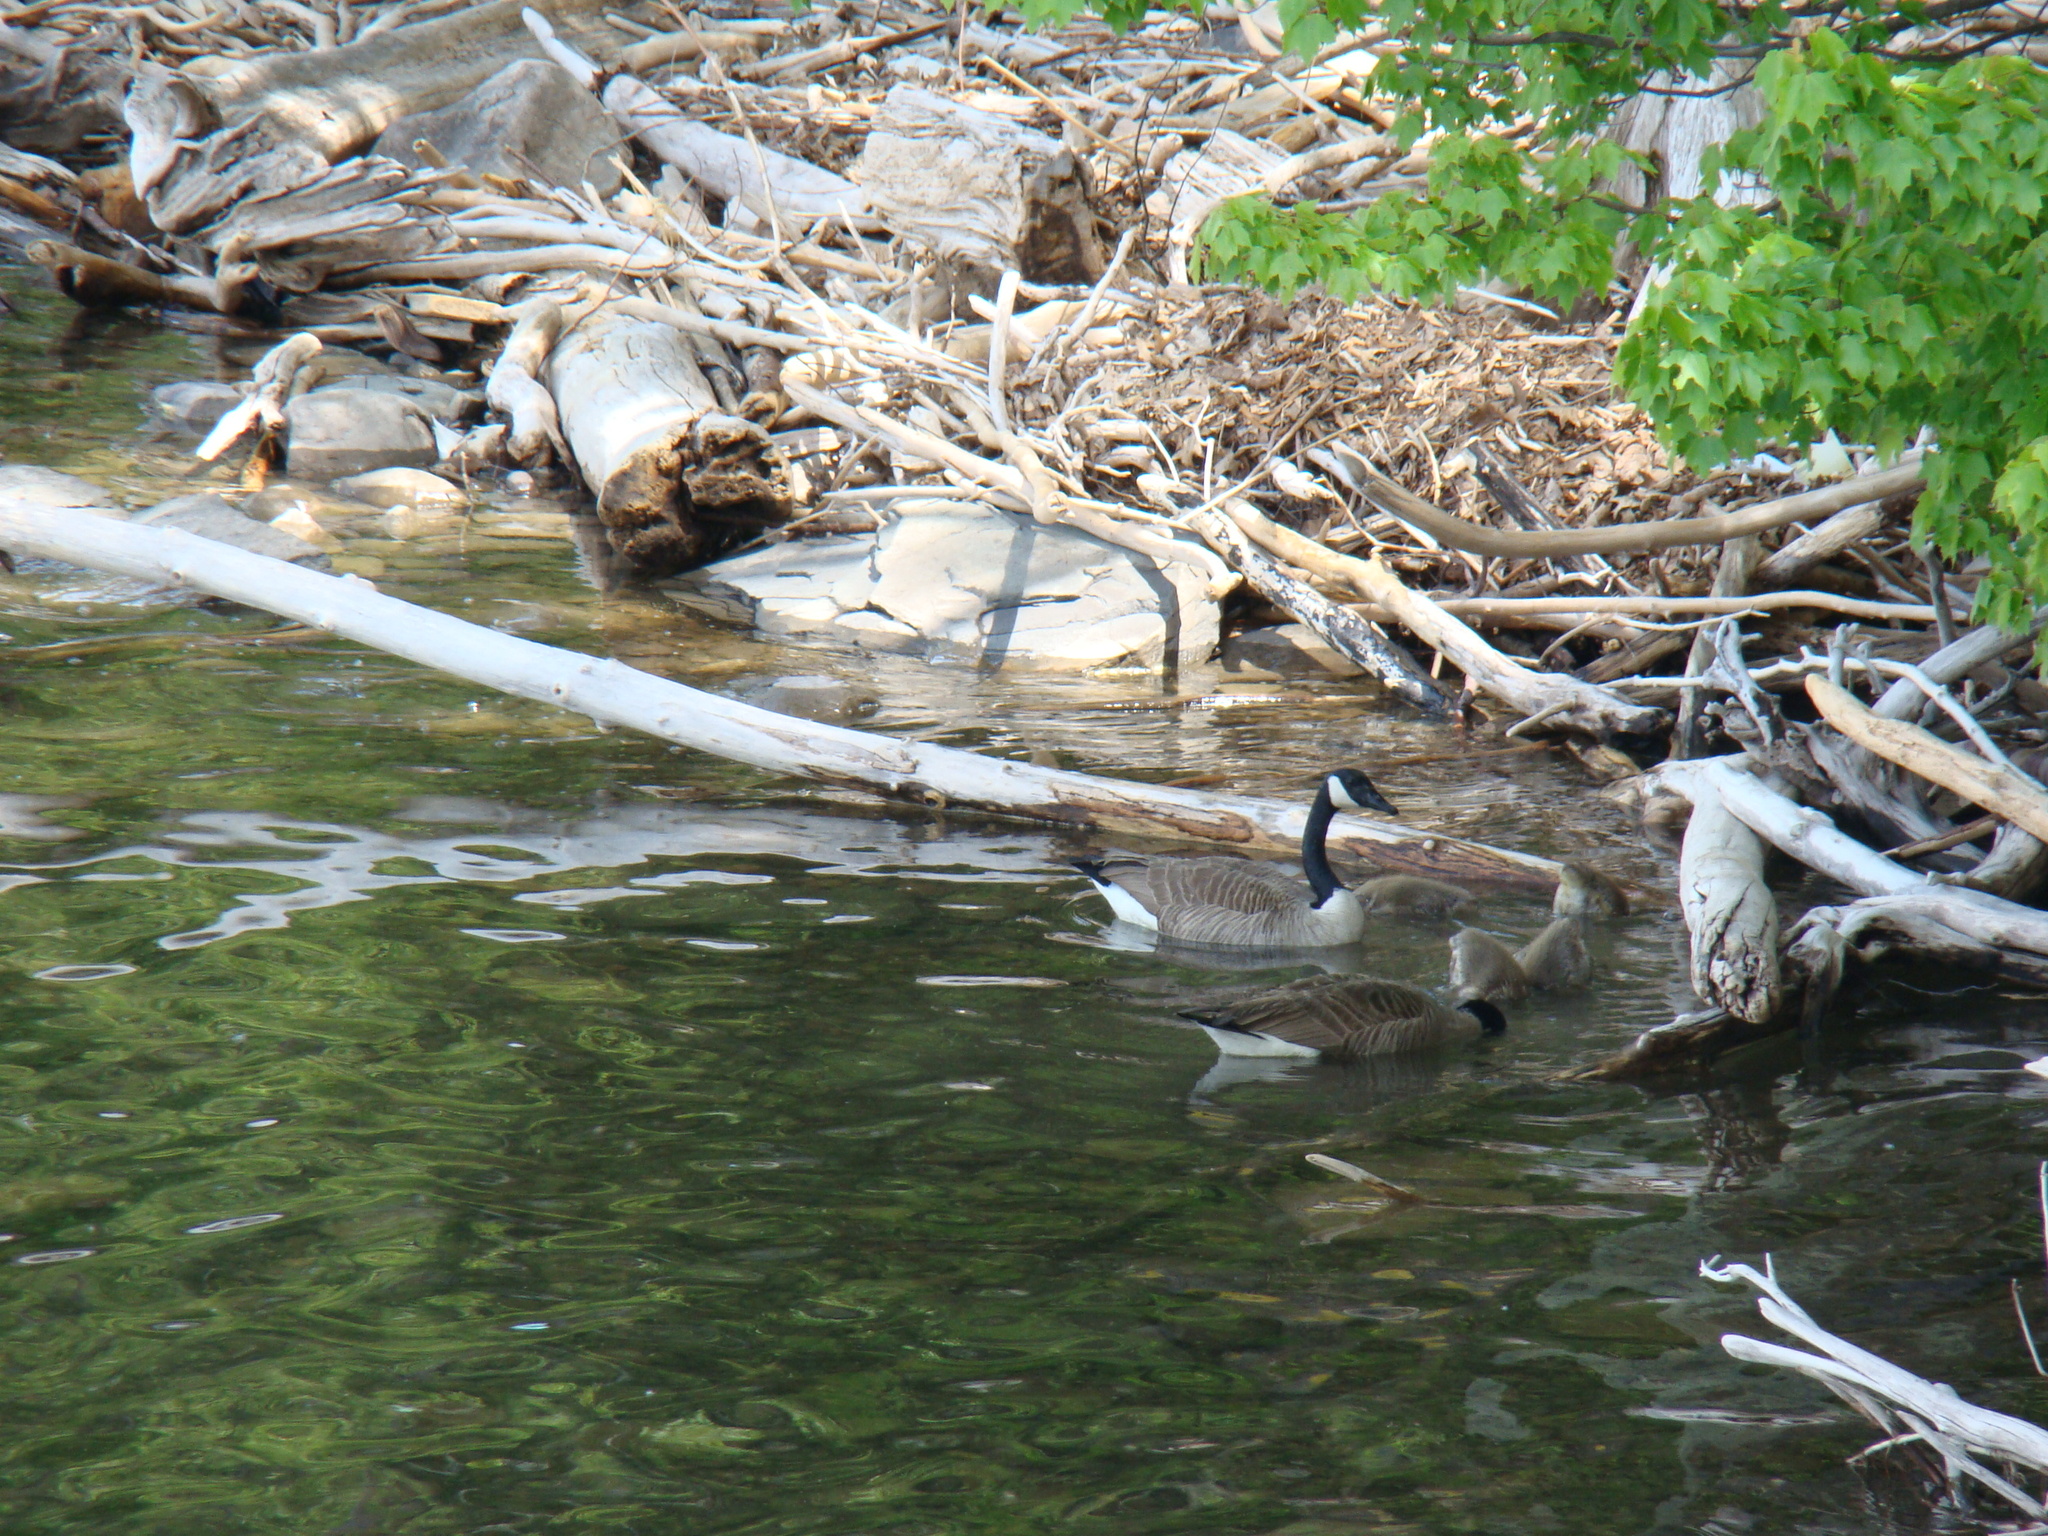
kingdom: Animalia
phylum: Chordata
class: Aves
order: Anseriformes
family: Anatidae
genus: Branta
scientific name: Branta canadensis
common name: Canada goose
